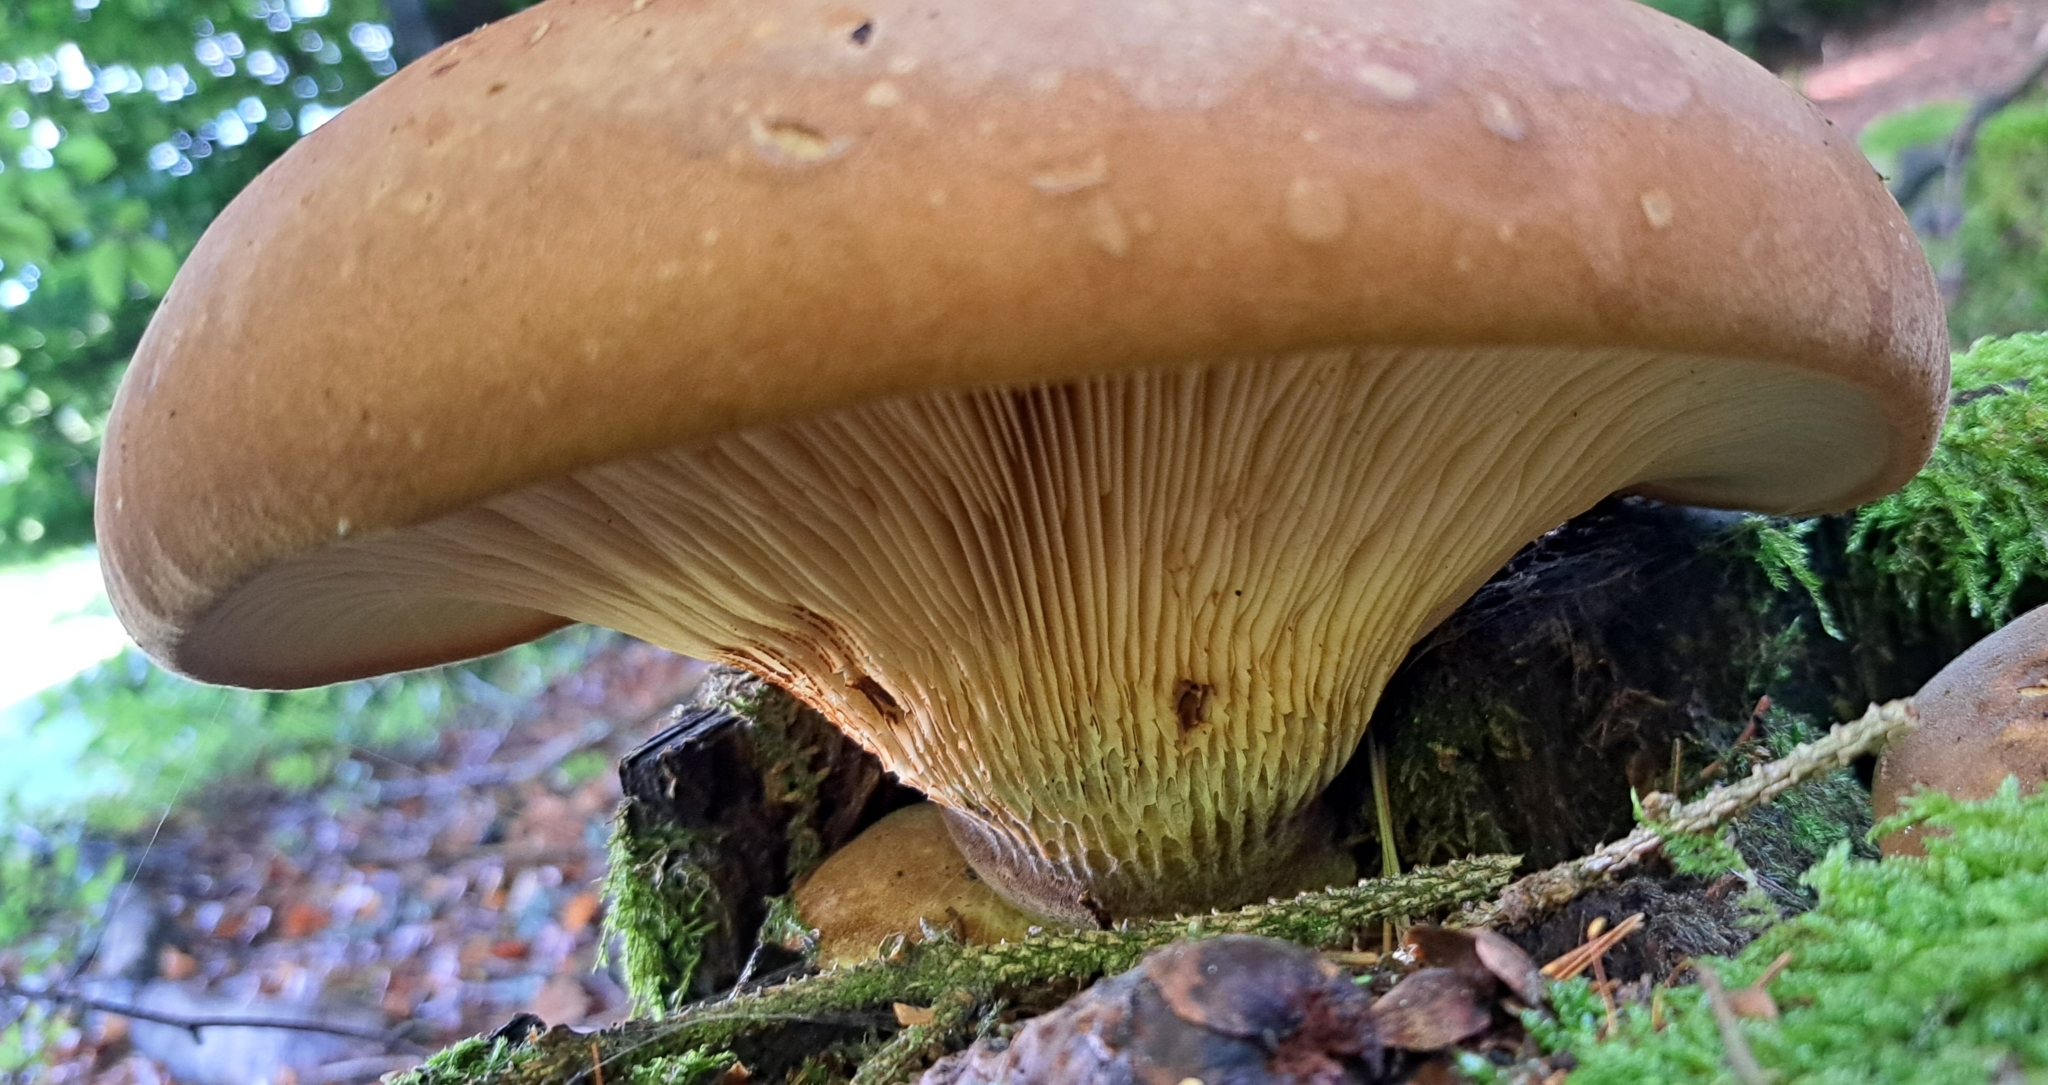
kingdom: Fungi
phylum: Basidiomycota
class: Agaricomycetes
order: Boletales
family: Tapinellaceae
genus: Tapinella
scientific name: Tapinella atrotomentosa
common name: Velvet rollrim
